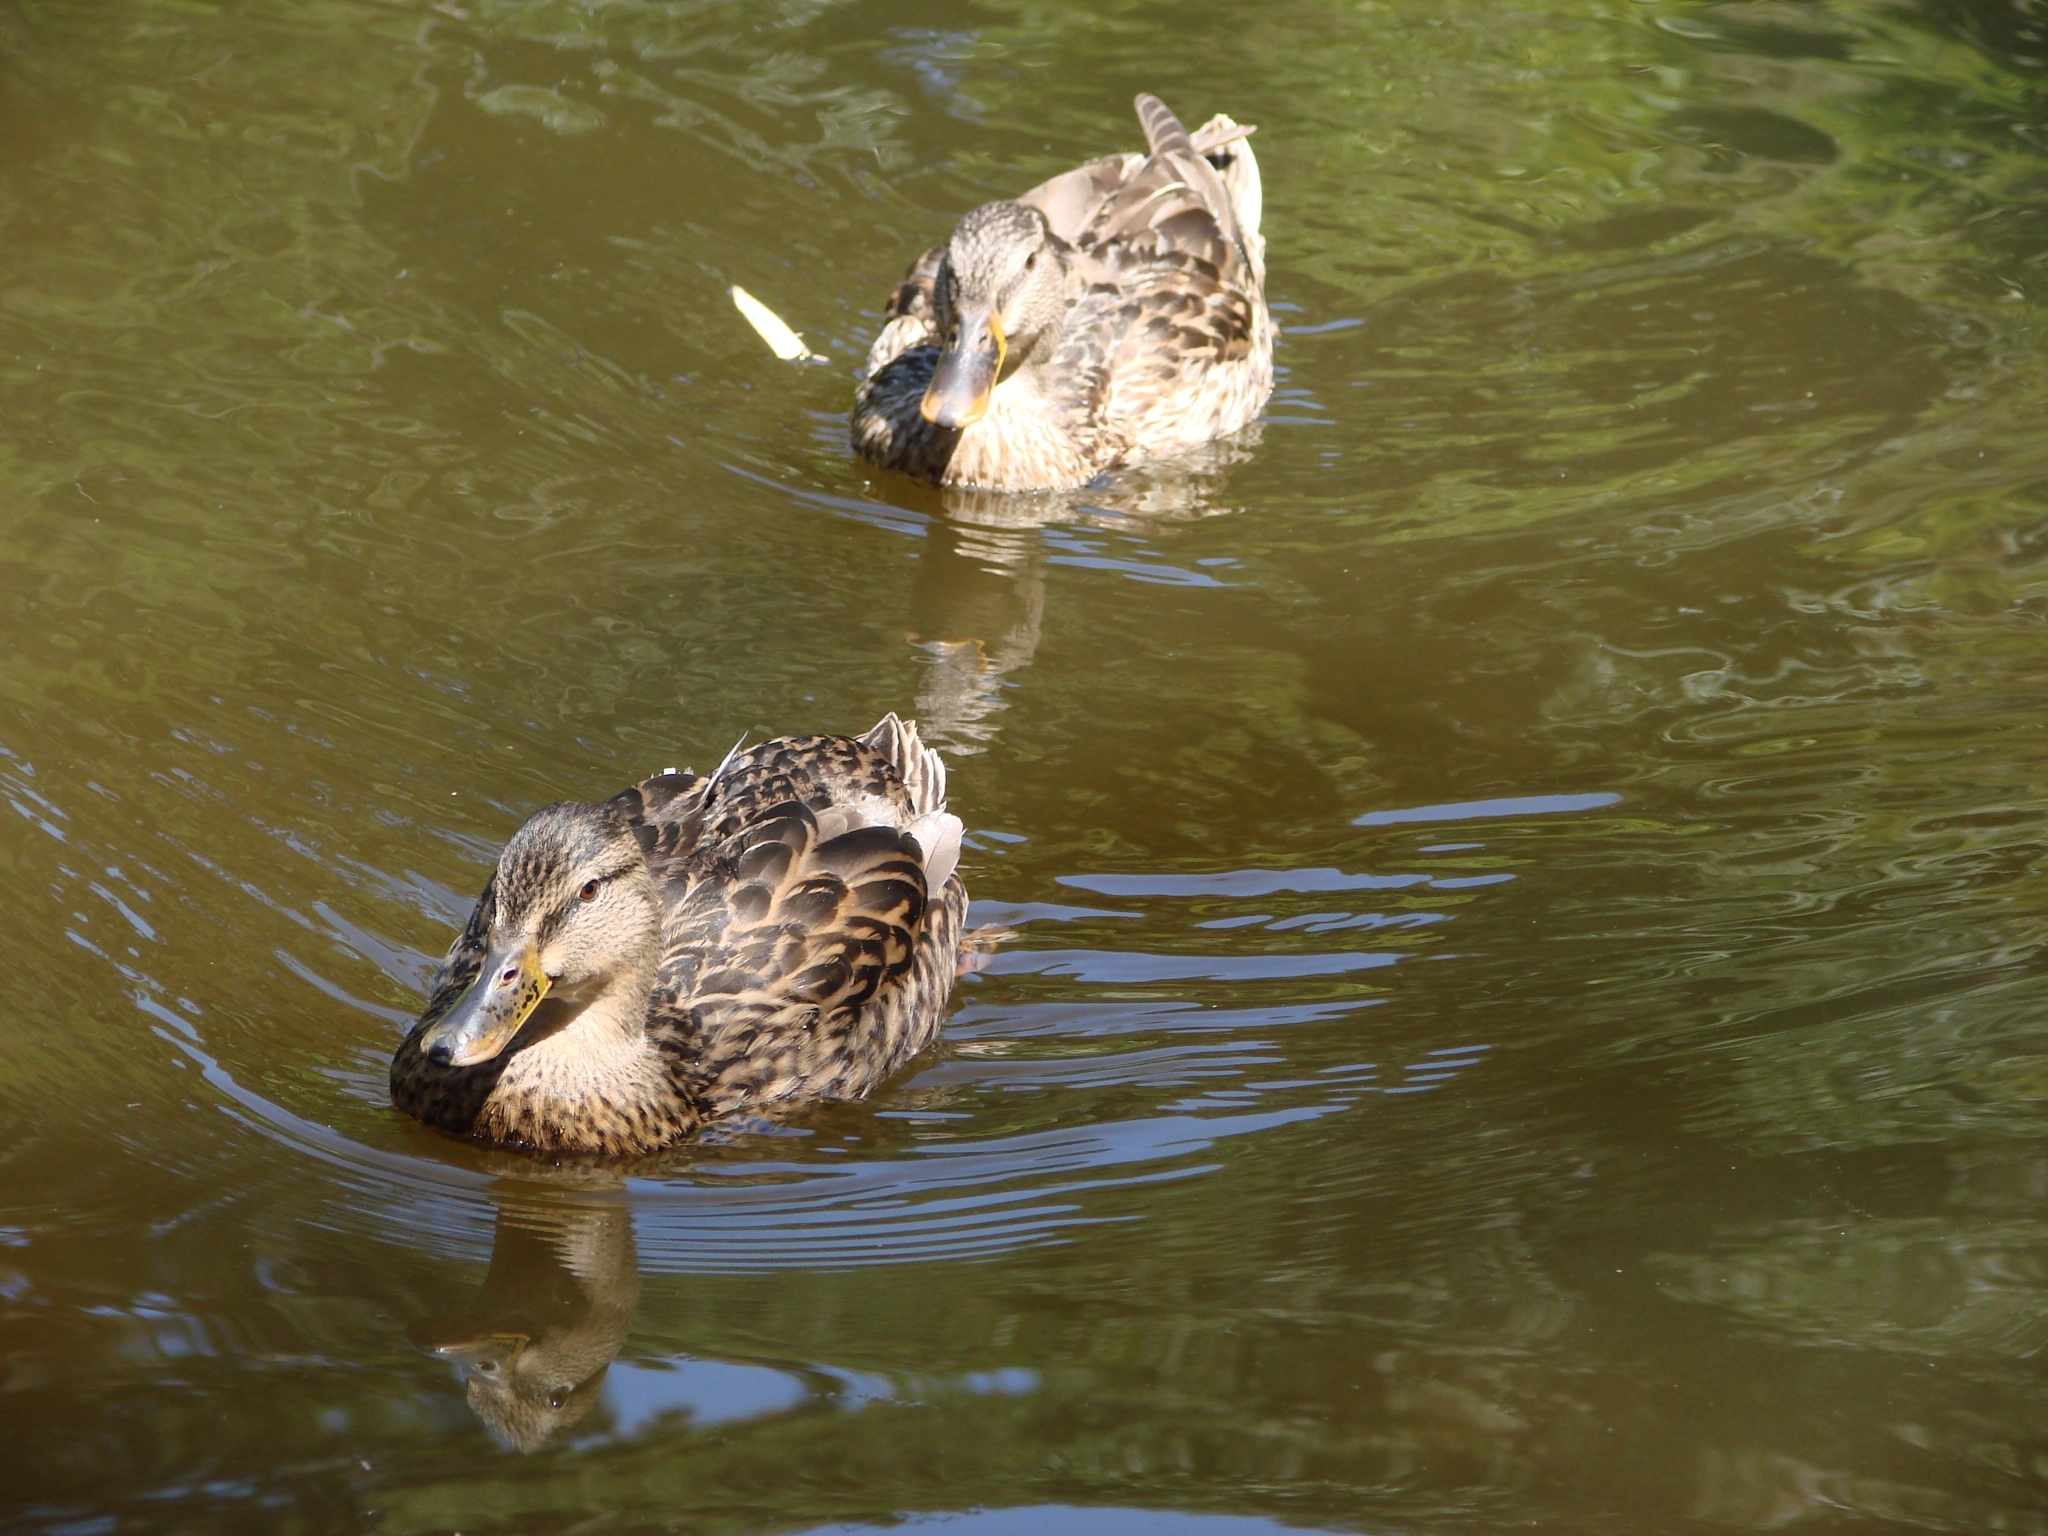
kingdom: Animalia
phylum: Chordata
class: Aves
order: Anseriformes
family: Anatidae
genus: Anas
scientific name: Anas platyrhynchos
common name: Mallard
